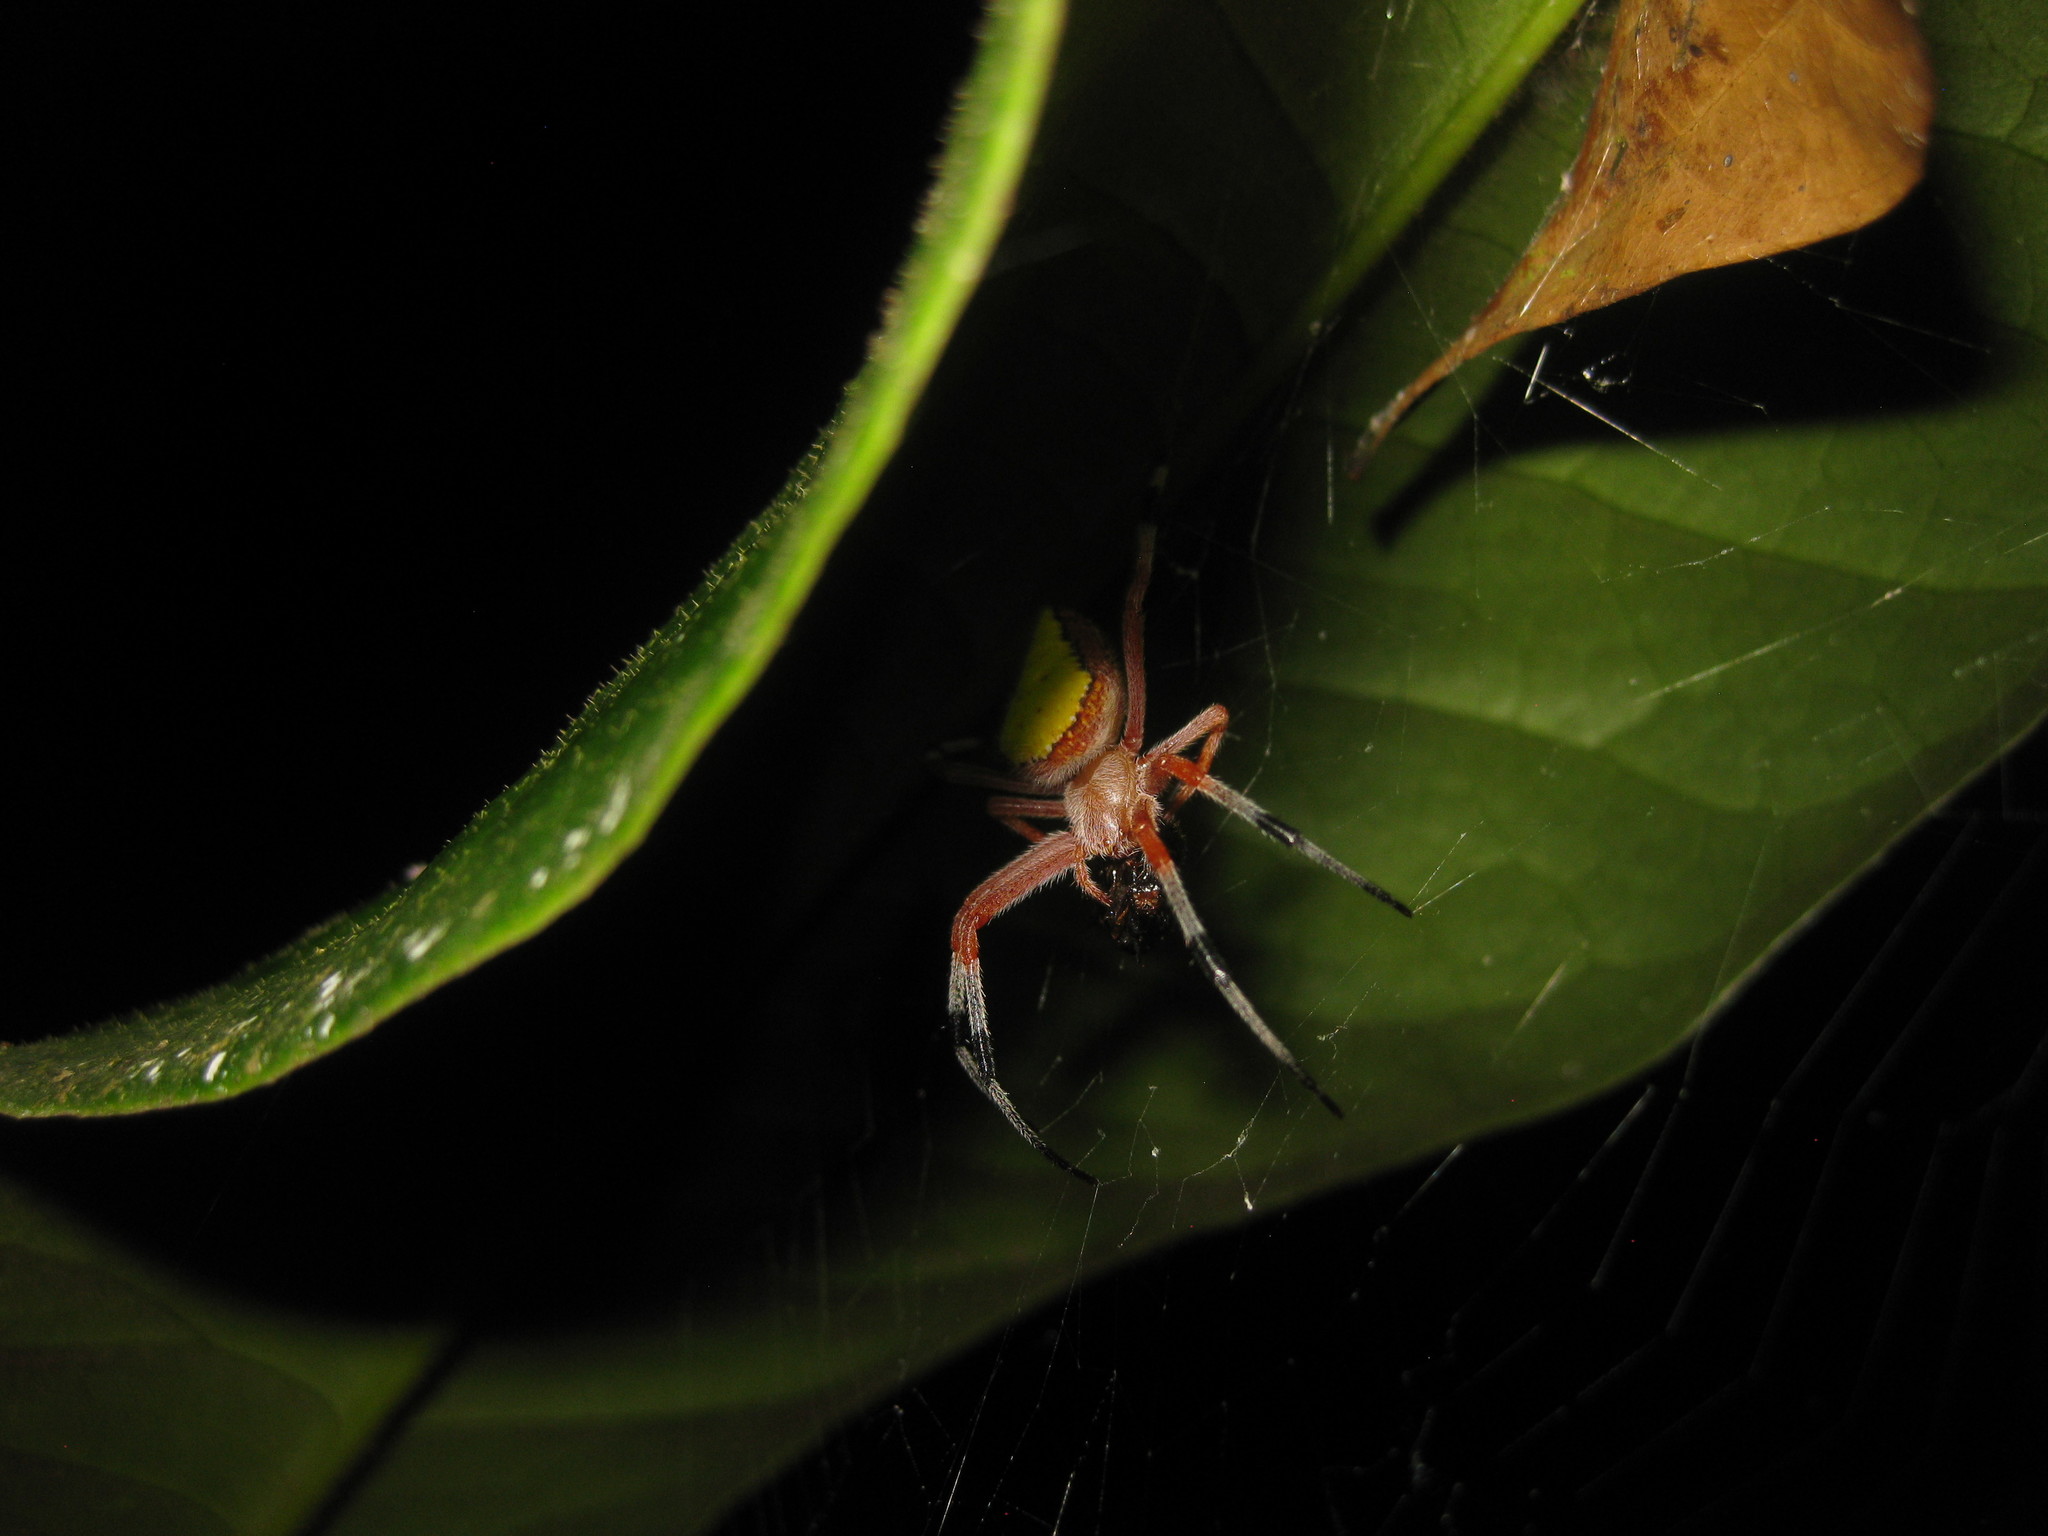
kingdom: Animalia
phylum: Arthropoda
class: Arachnida
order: Araneae
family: Araneidae
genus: Eriophora
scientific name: Eriophora nephiloides
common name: Orb weavers
